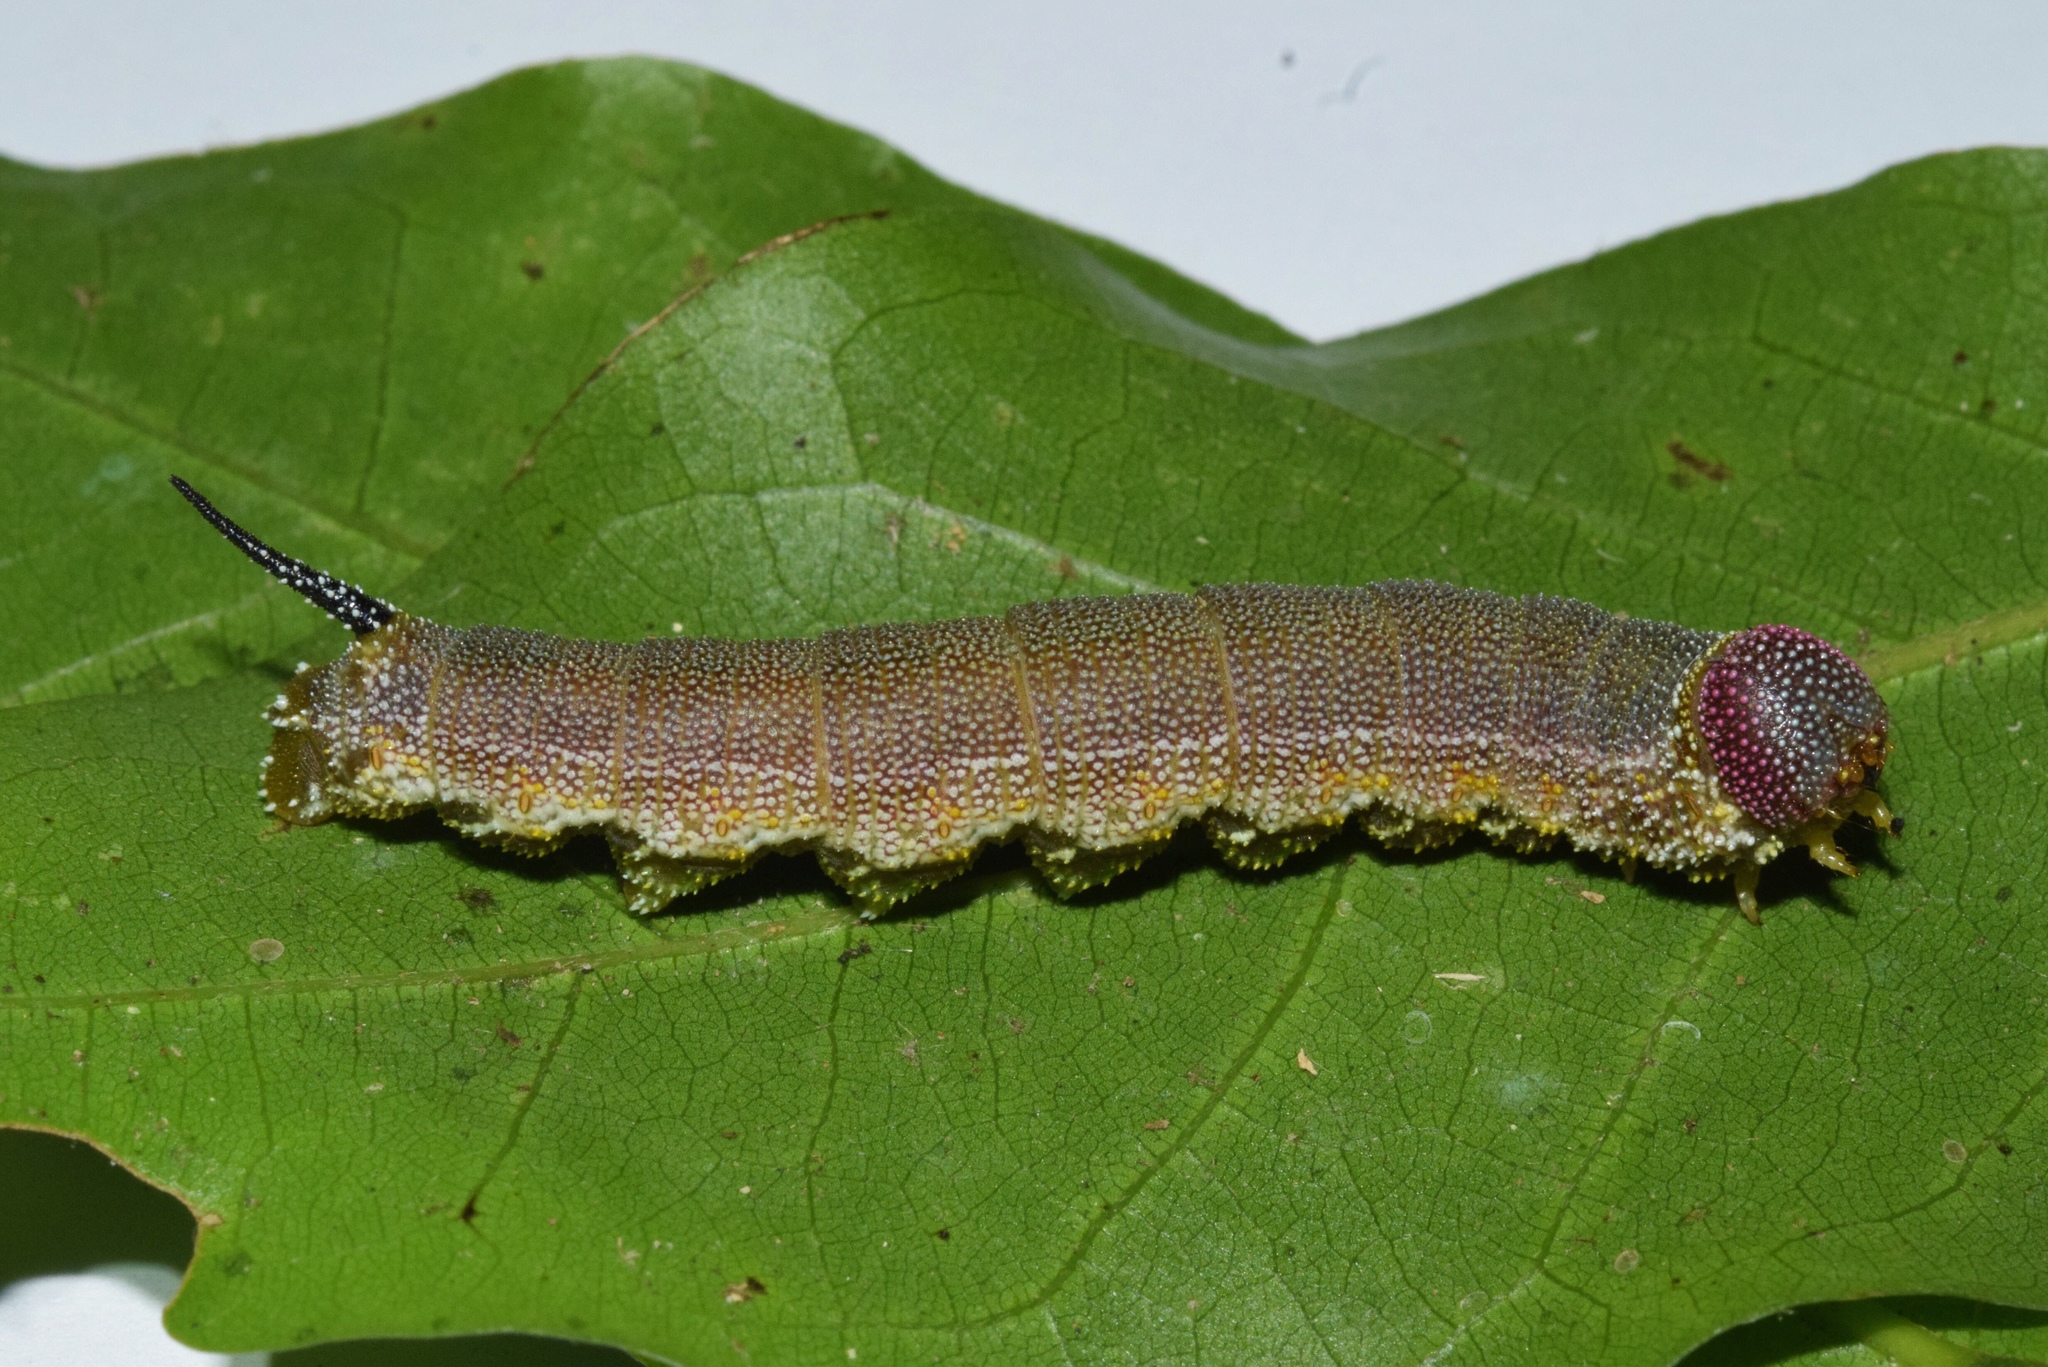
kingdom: Animalia
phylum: Arthropoda
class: Insecta
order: Lepidoptera
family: Sphingidae
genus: Pseudandriasa
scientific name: Pseudandriasa mutata
